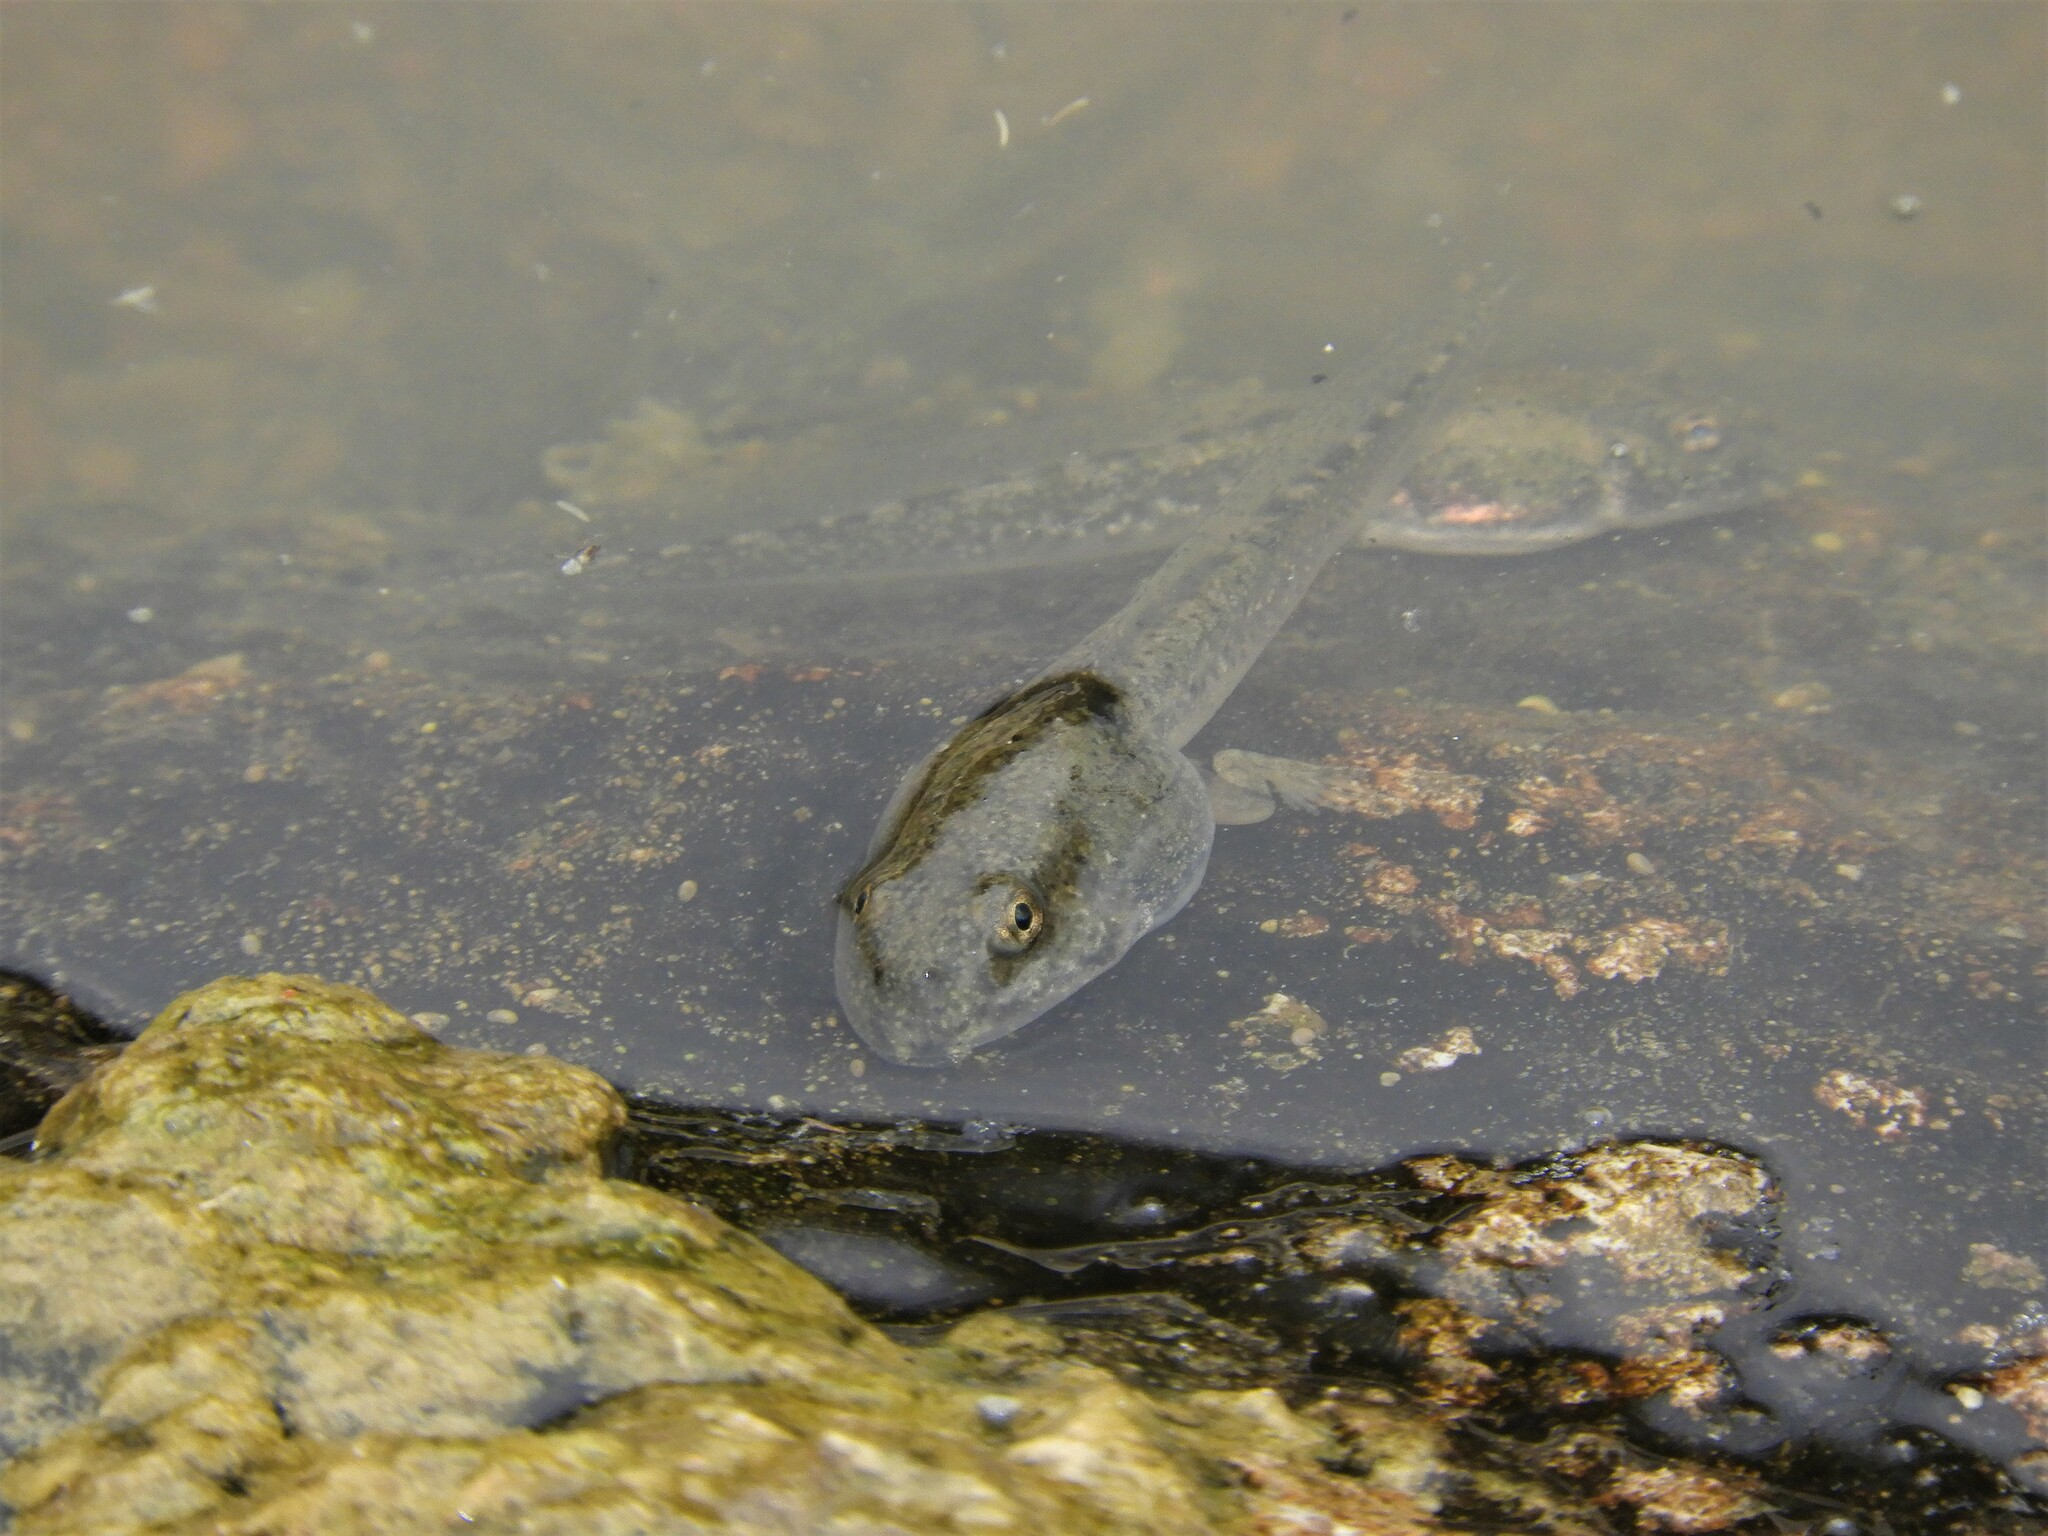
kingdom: Animalia
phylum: Chordata
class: Amphibia
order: Anura
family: Pyxicephalidae
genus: Amietia
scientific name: Amietia poyntoni
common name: Poynton's river frog
